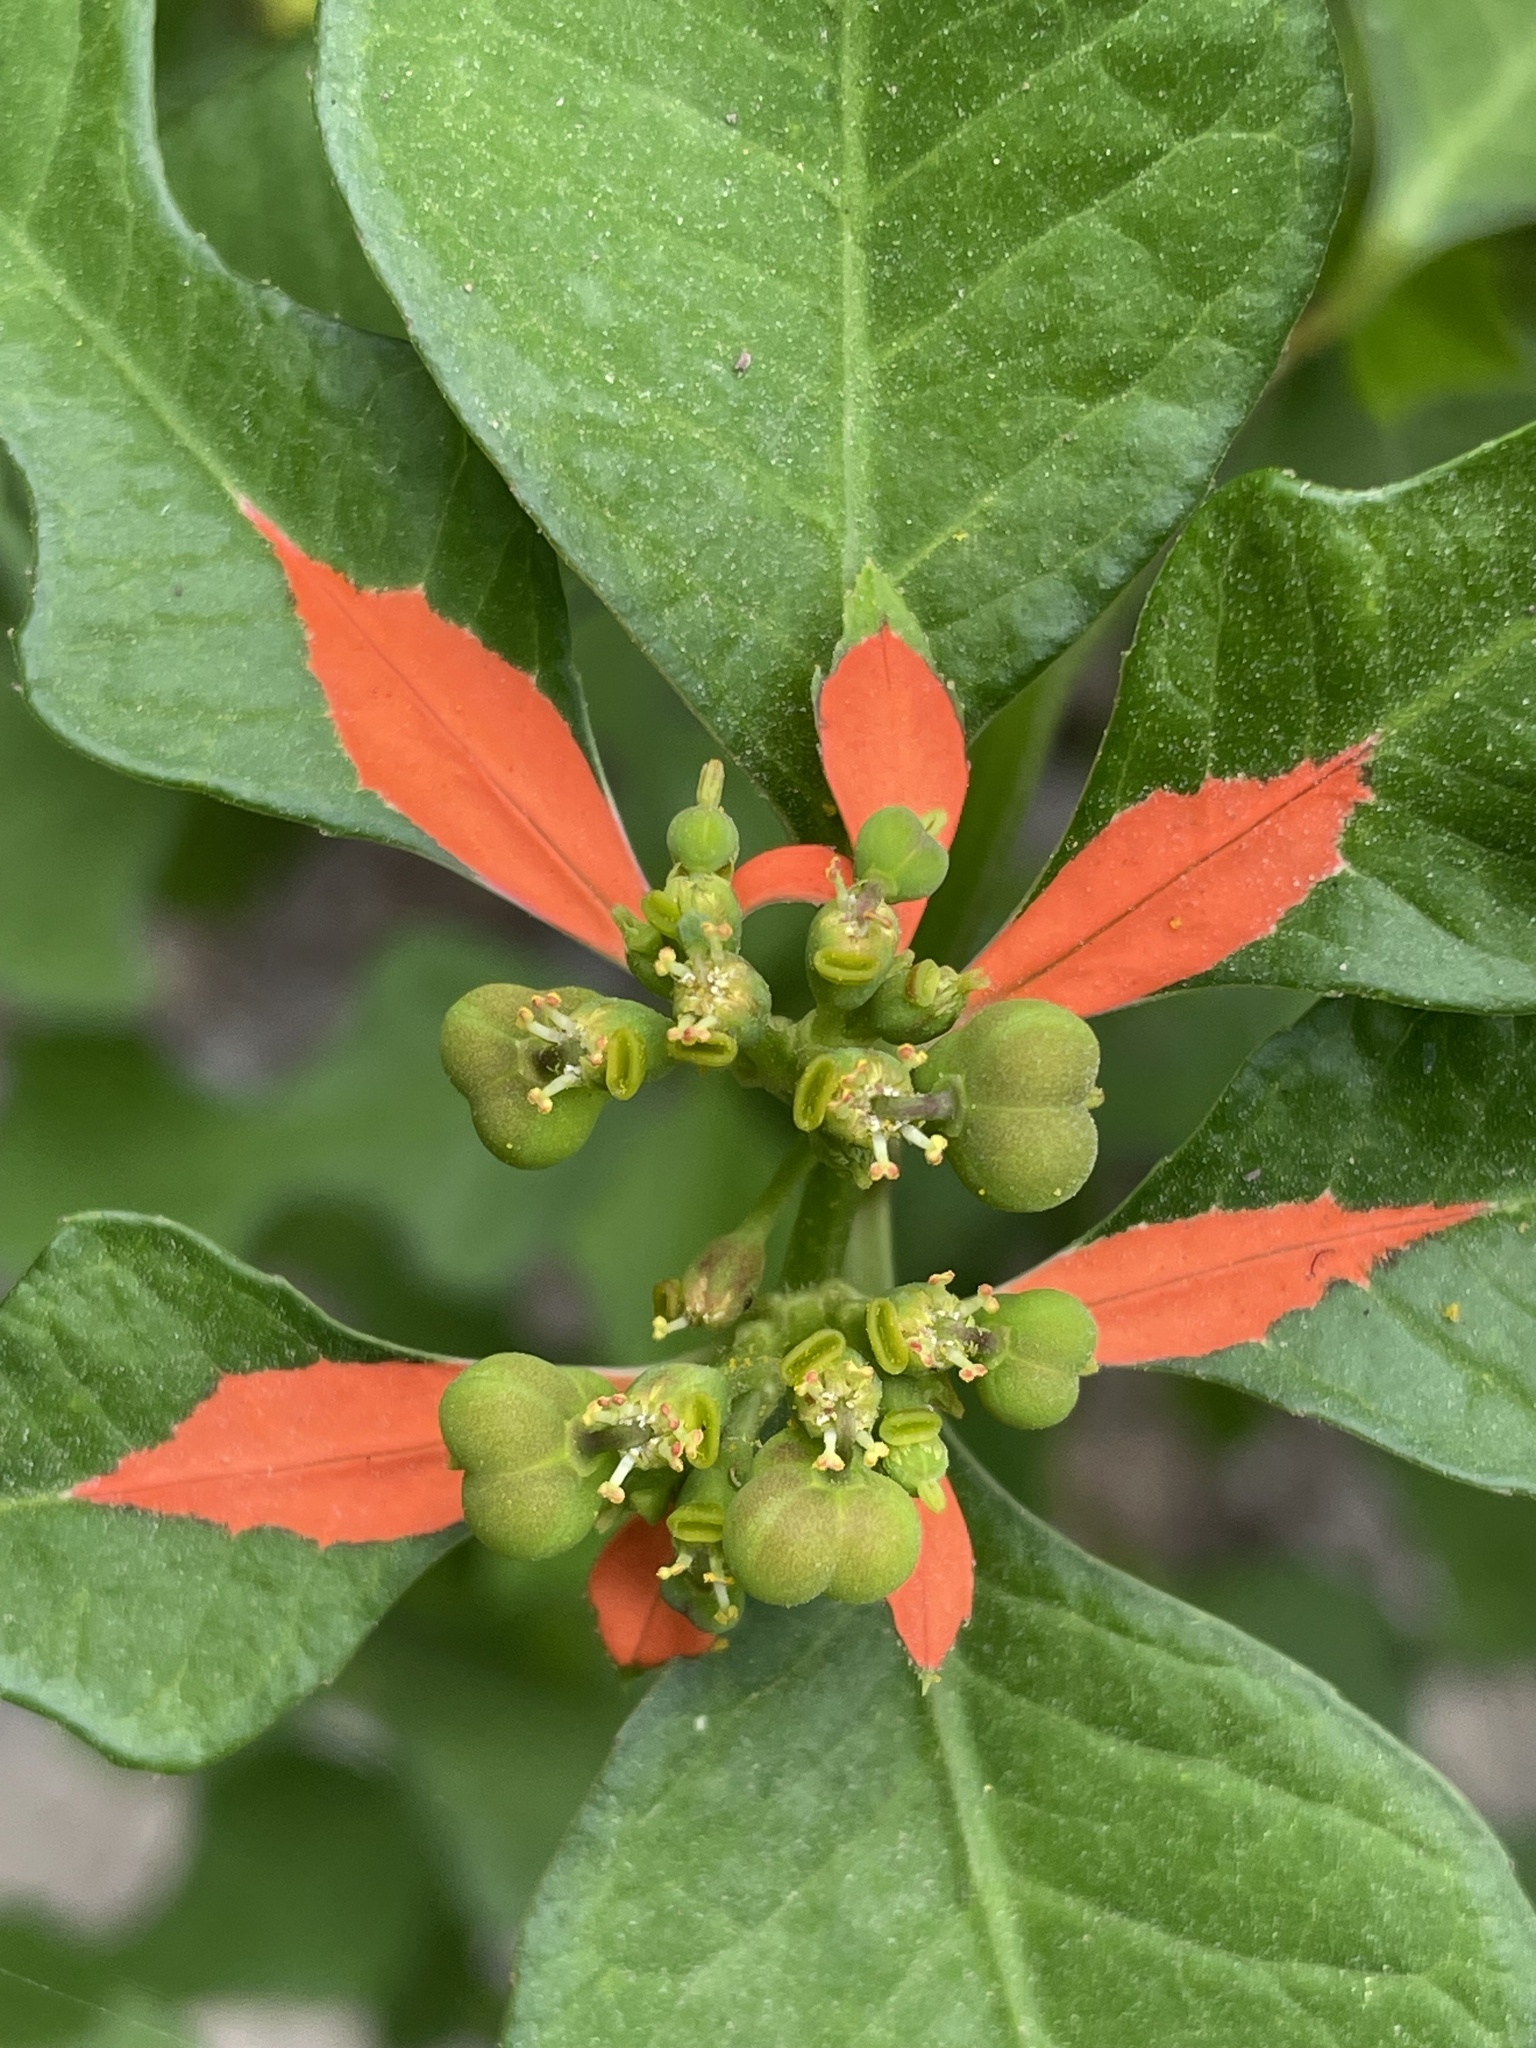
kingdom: Plantae
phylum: Tracheophyta
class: Magnoliopsida
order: Malpighiales
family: Euphorbiaceae
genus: Euphorbia
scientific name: Euphorbia heterophylla
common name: Mexican fireplant
